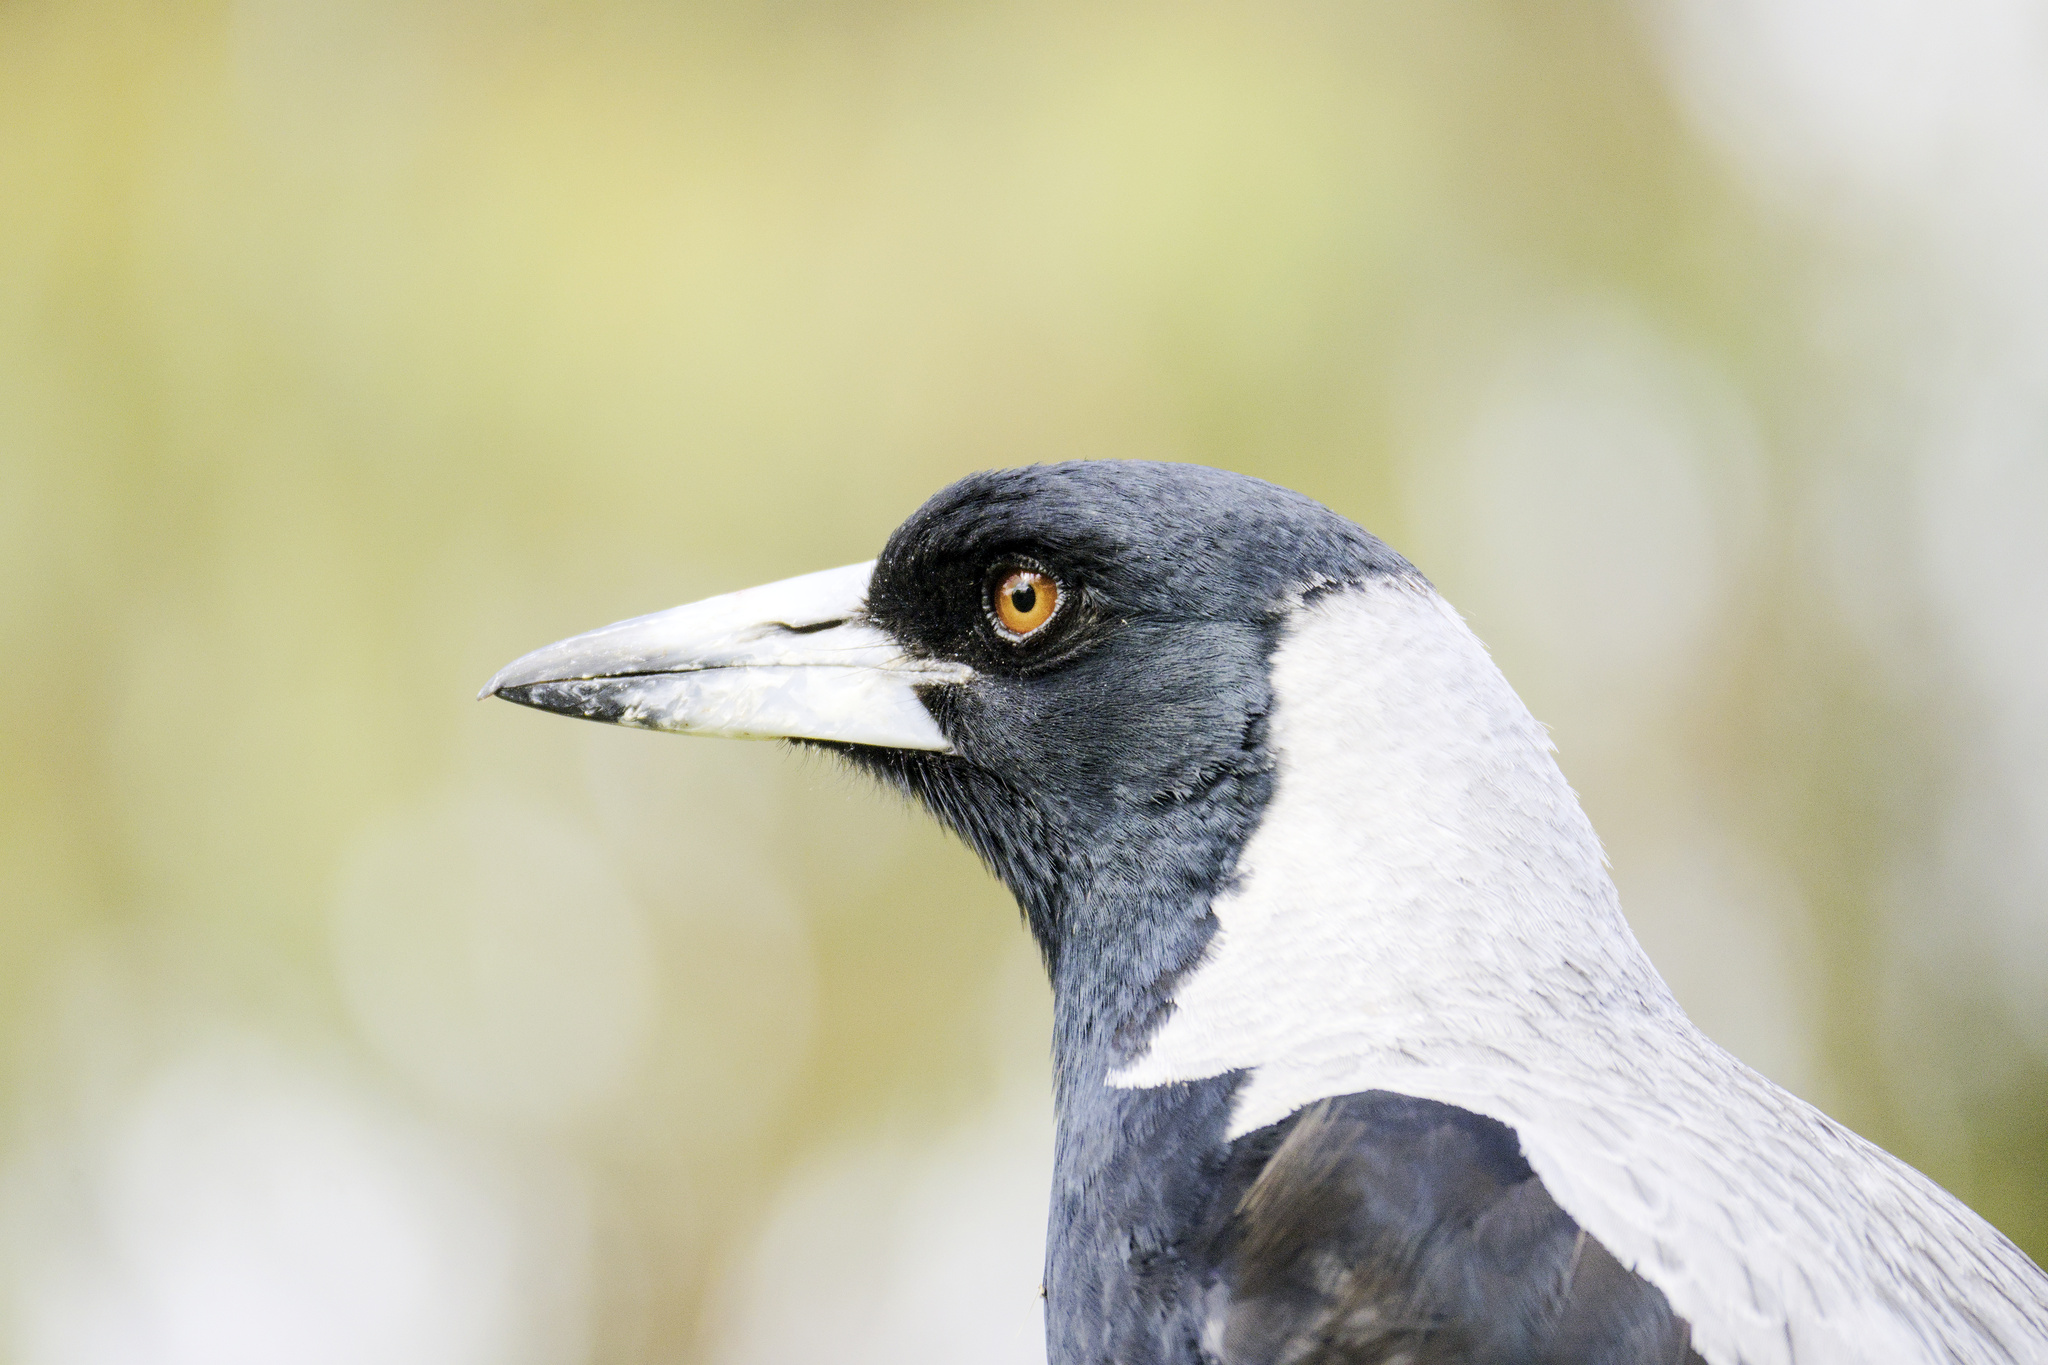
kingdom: Animalia
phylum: Chordata
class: Aves
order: Passeriformes
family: Cracticidae
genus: Gymnorhina
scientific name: Gymnorhina tibicen
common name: Australian magpie
